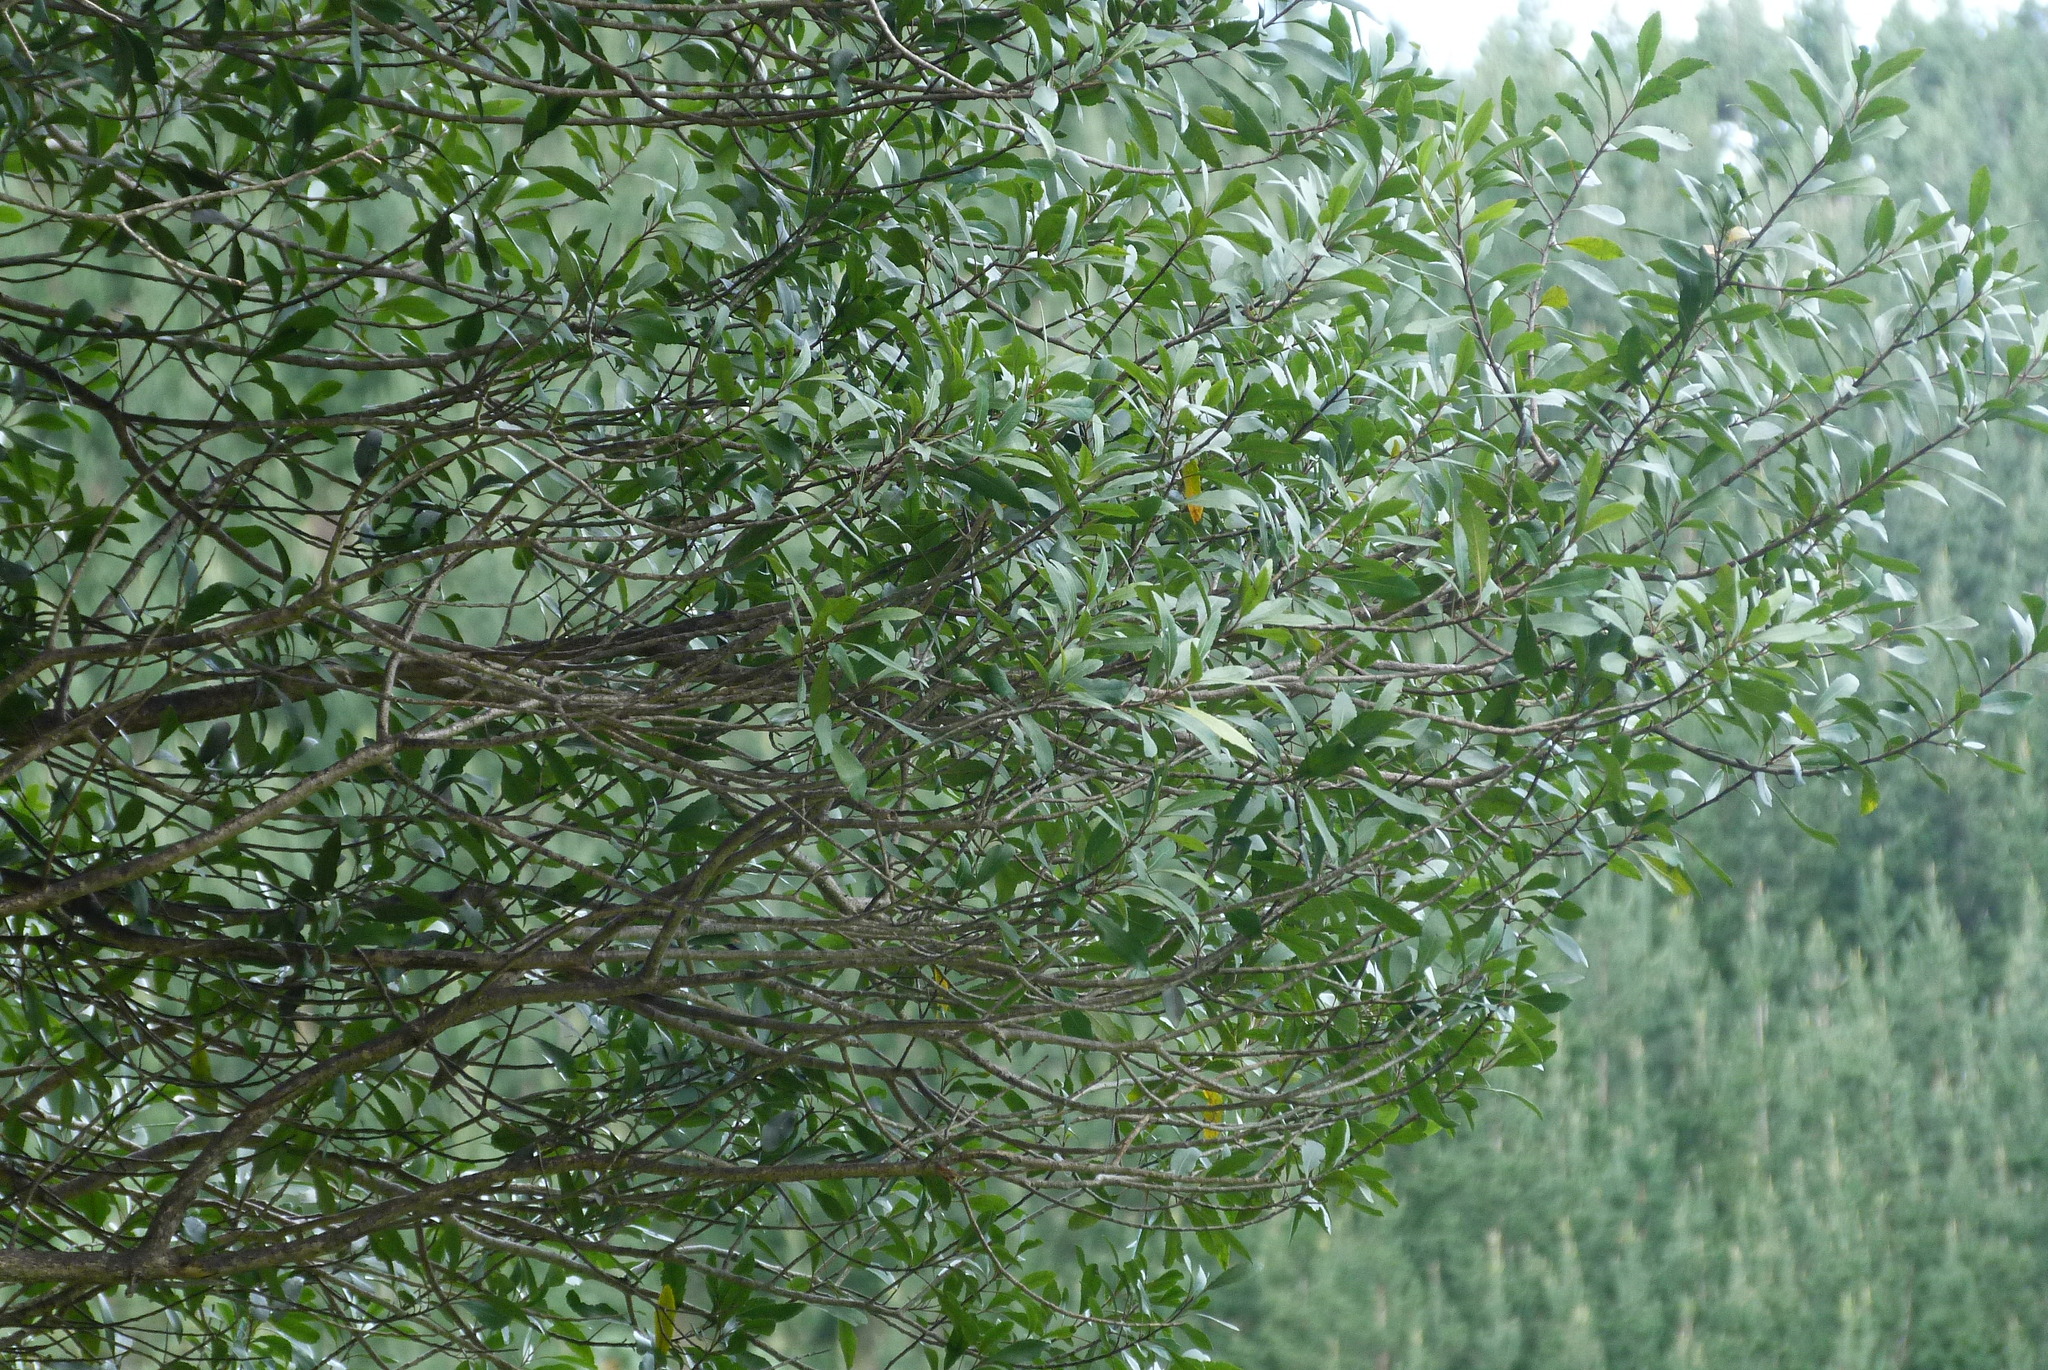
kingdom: Plantae
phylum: Tracheophyta
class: Magnoliopsida
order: Oxalidales
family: Elaeocarpaceae
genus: Elaeocarpus
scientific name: Elaeocarpus hookerianus
